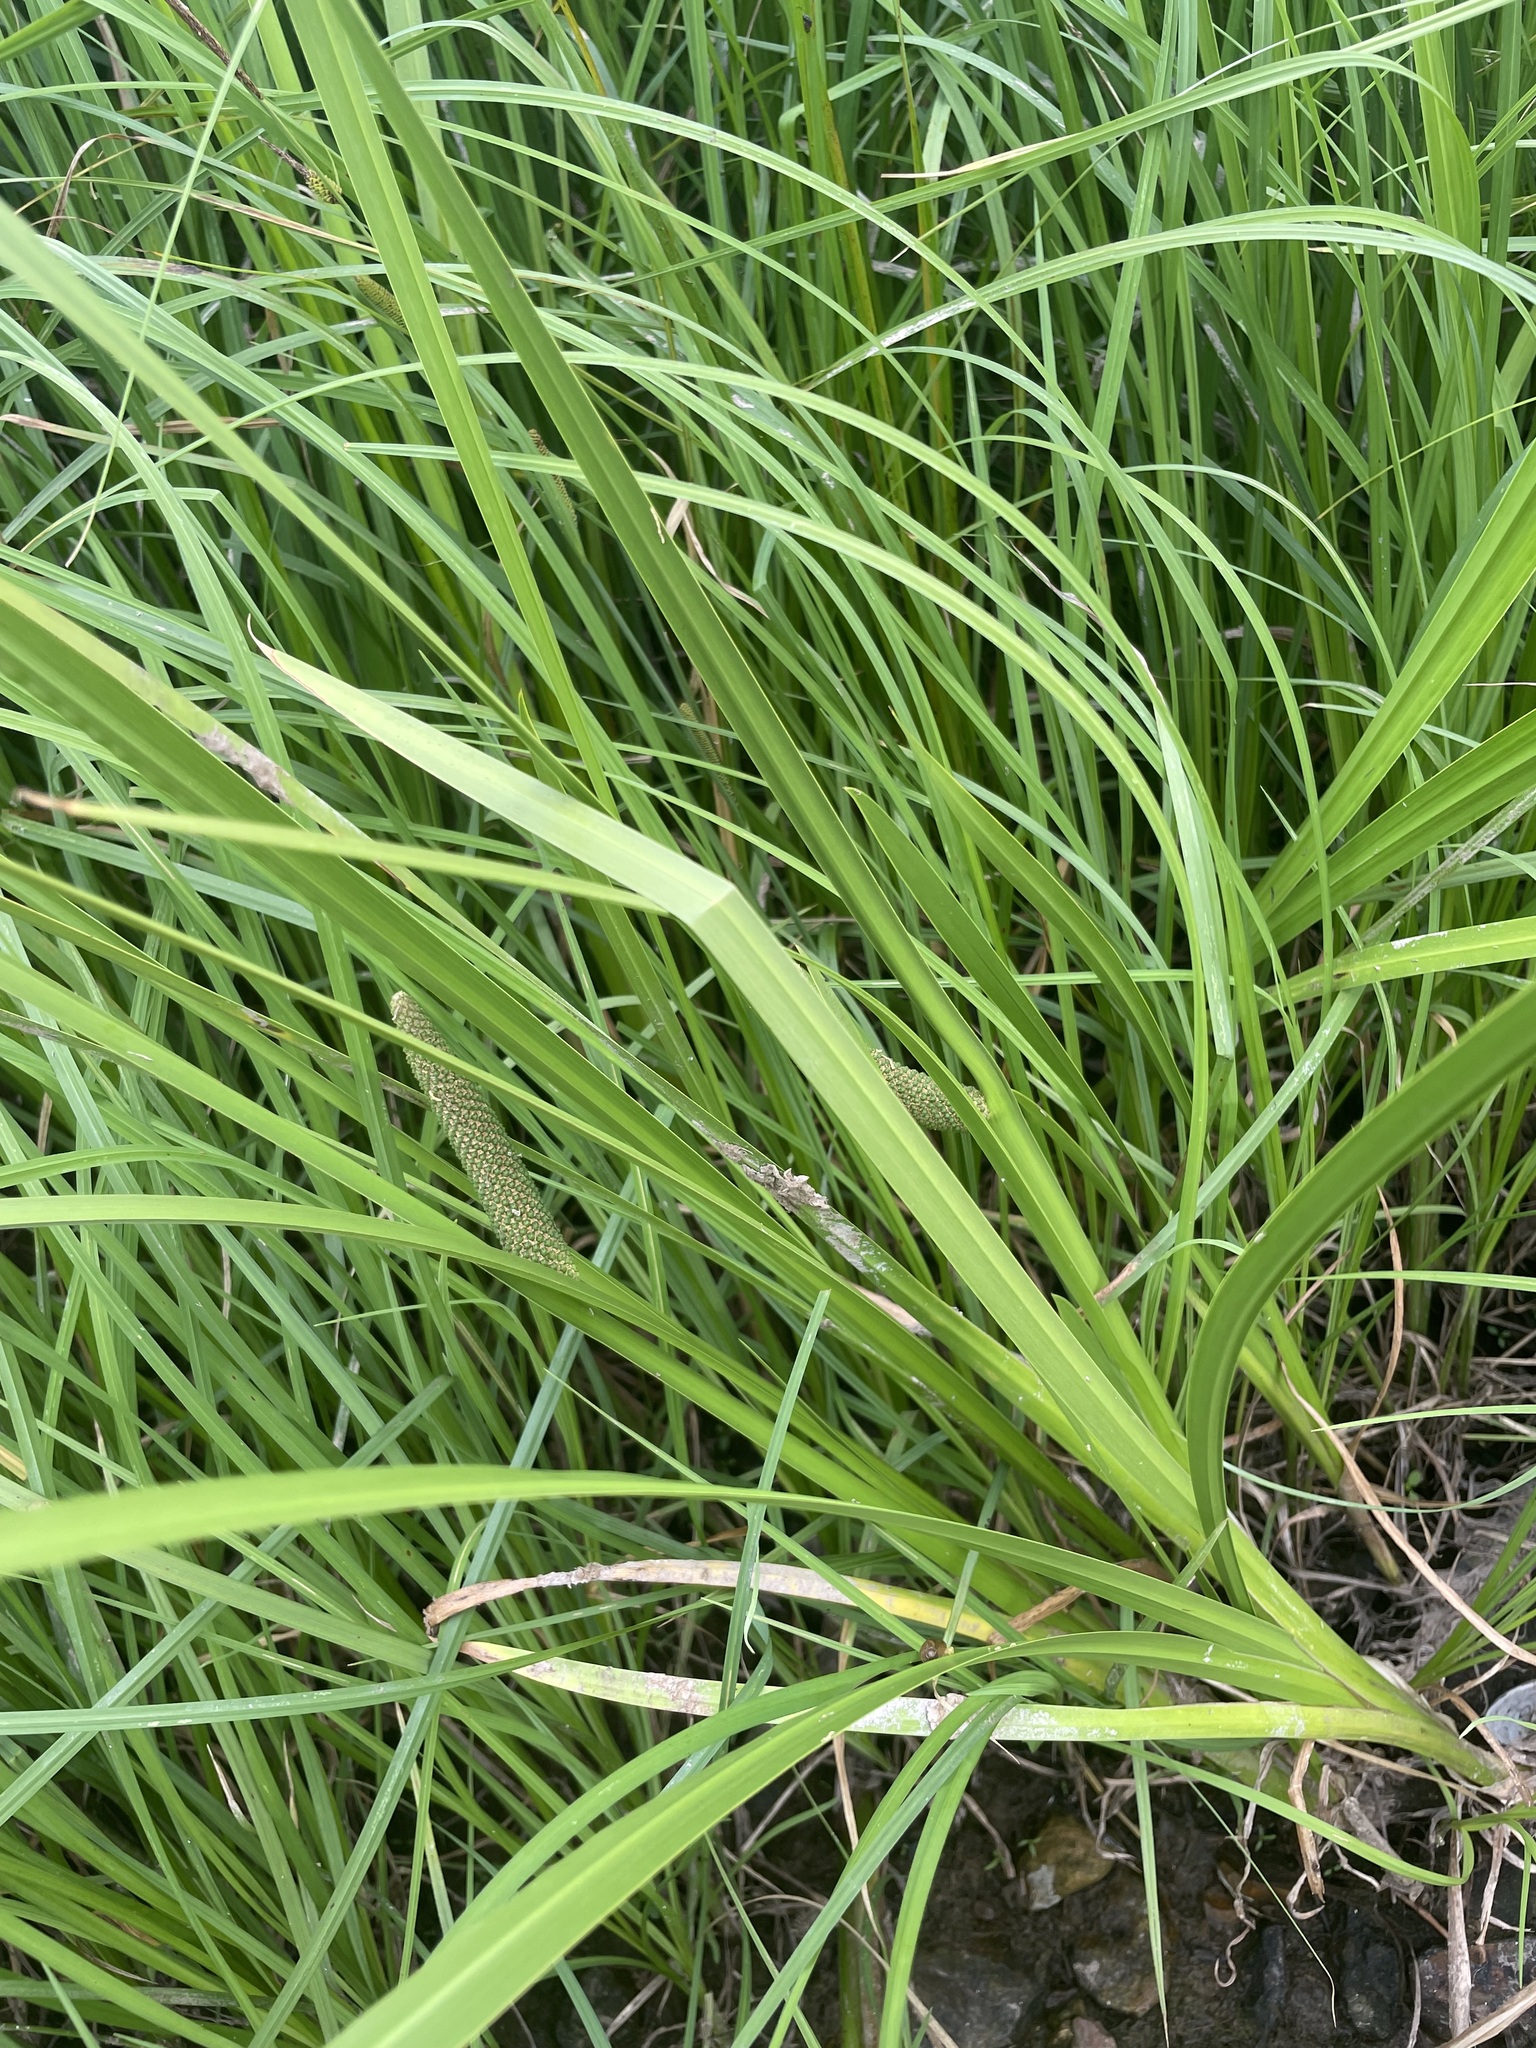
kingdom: Plantae
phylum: Tracheophyta
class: Liliopsida
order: Acorales
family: Acoraceae
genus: Acorus
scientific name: Acorus calamus
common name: Sweet-flag
